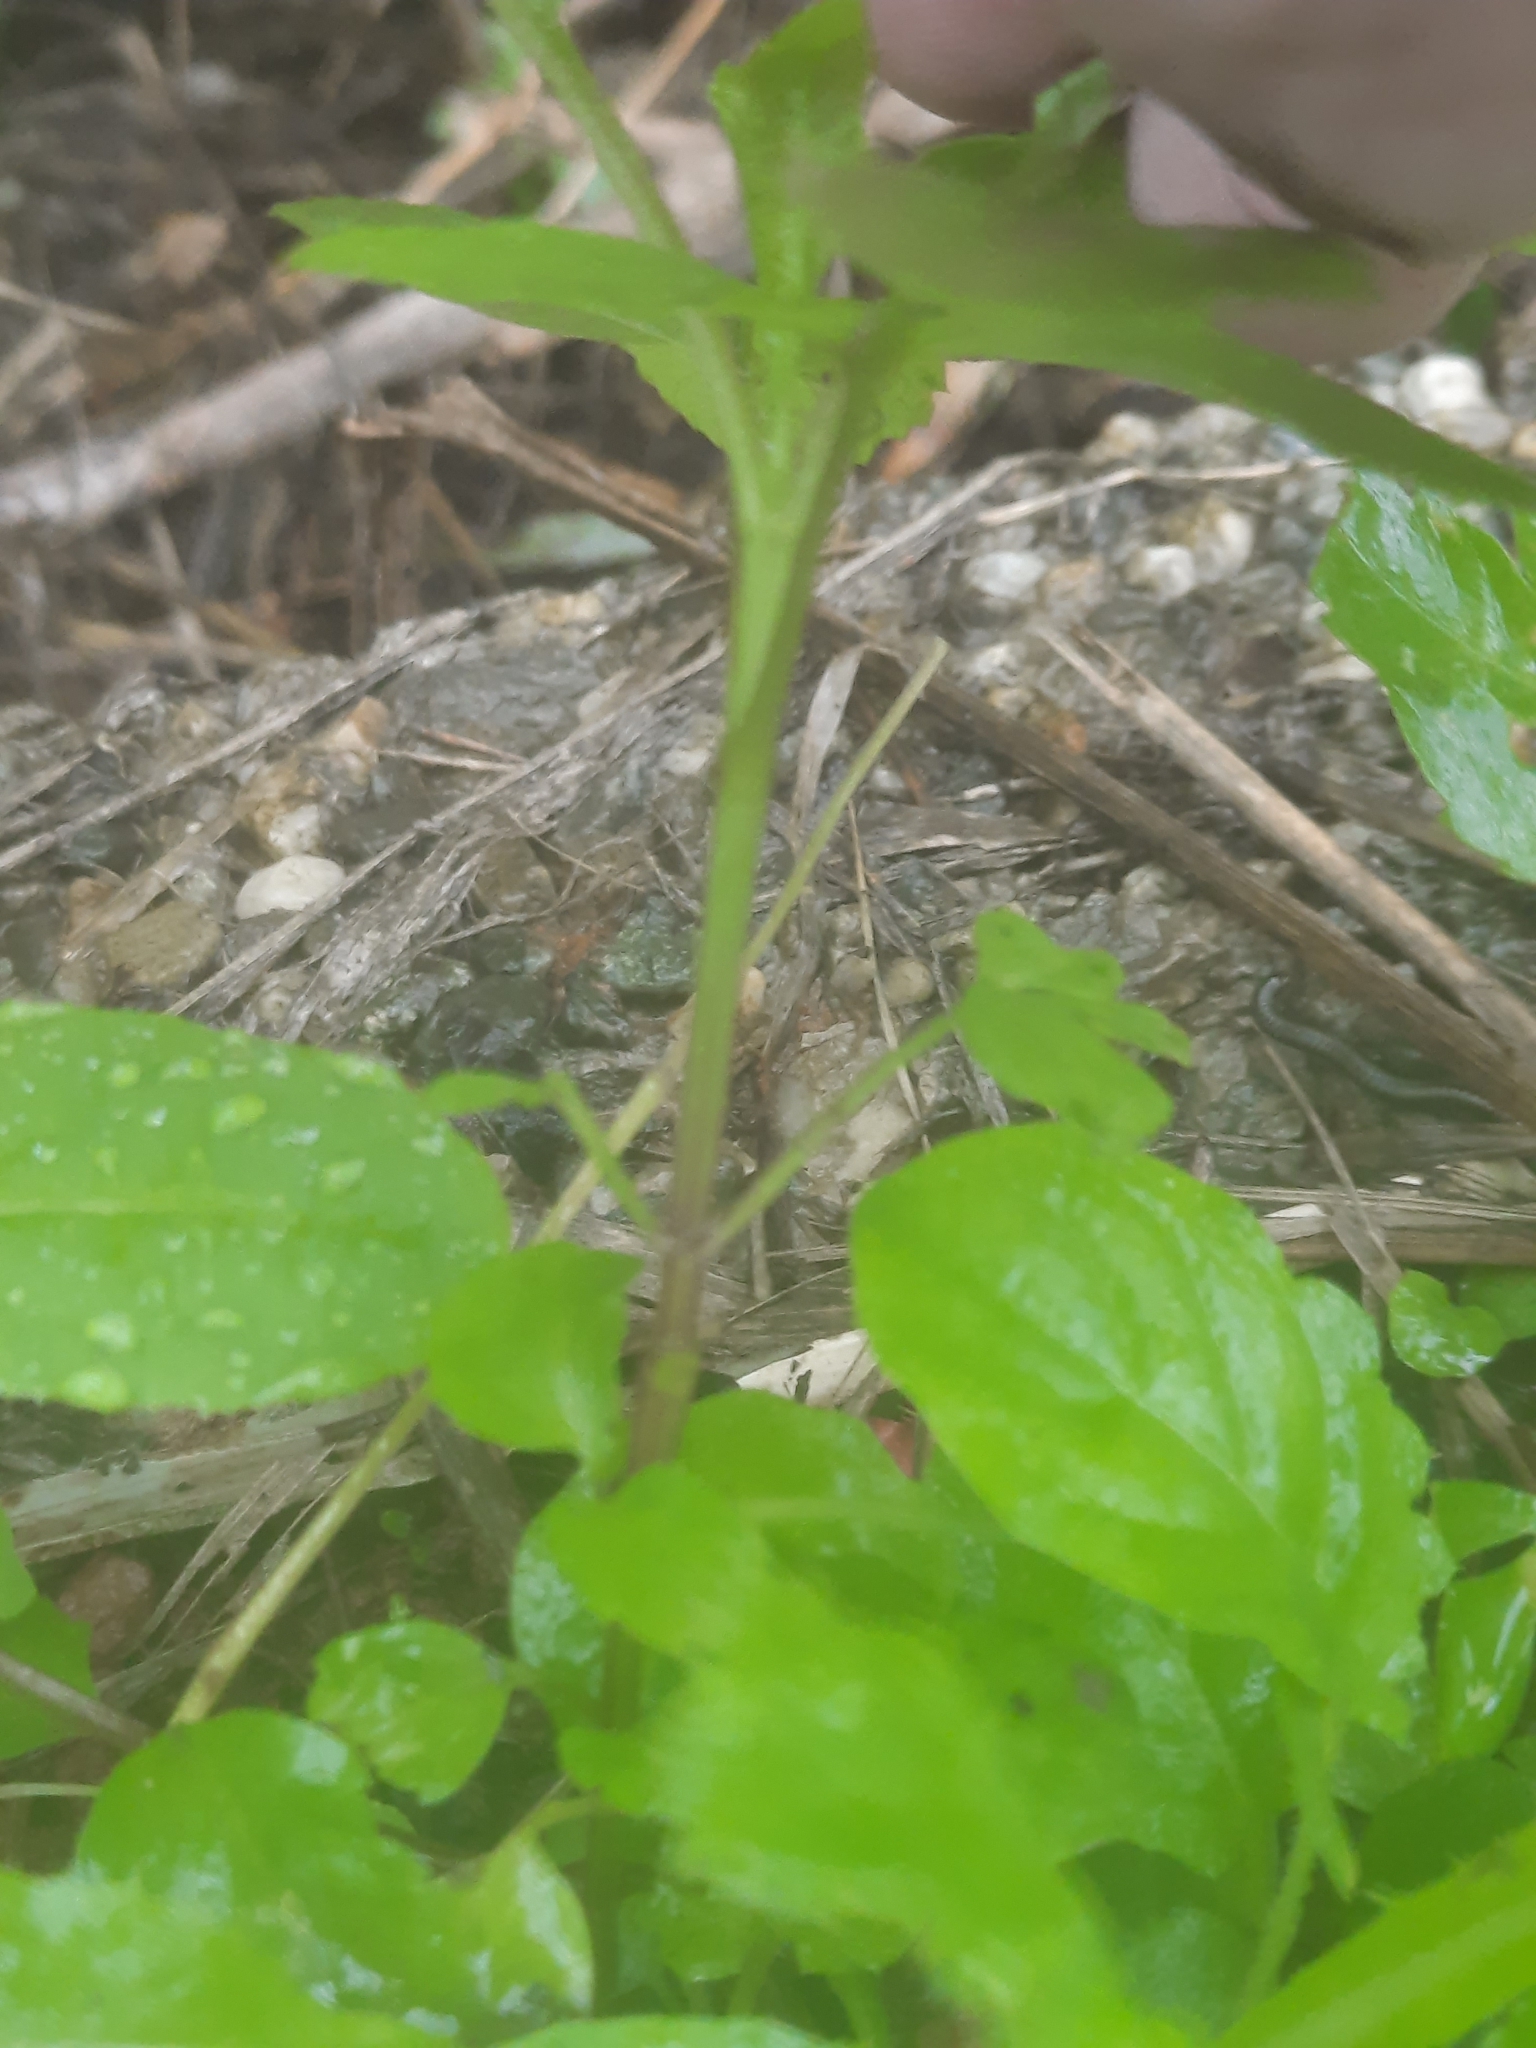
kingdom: Plantae
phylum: Tracheophyta
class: Magnoliopsida
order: Asterales
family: Asteraceae
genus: Bidens
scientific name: Bidens alba
